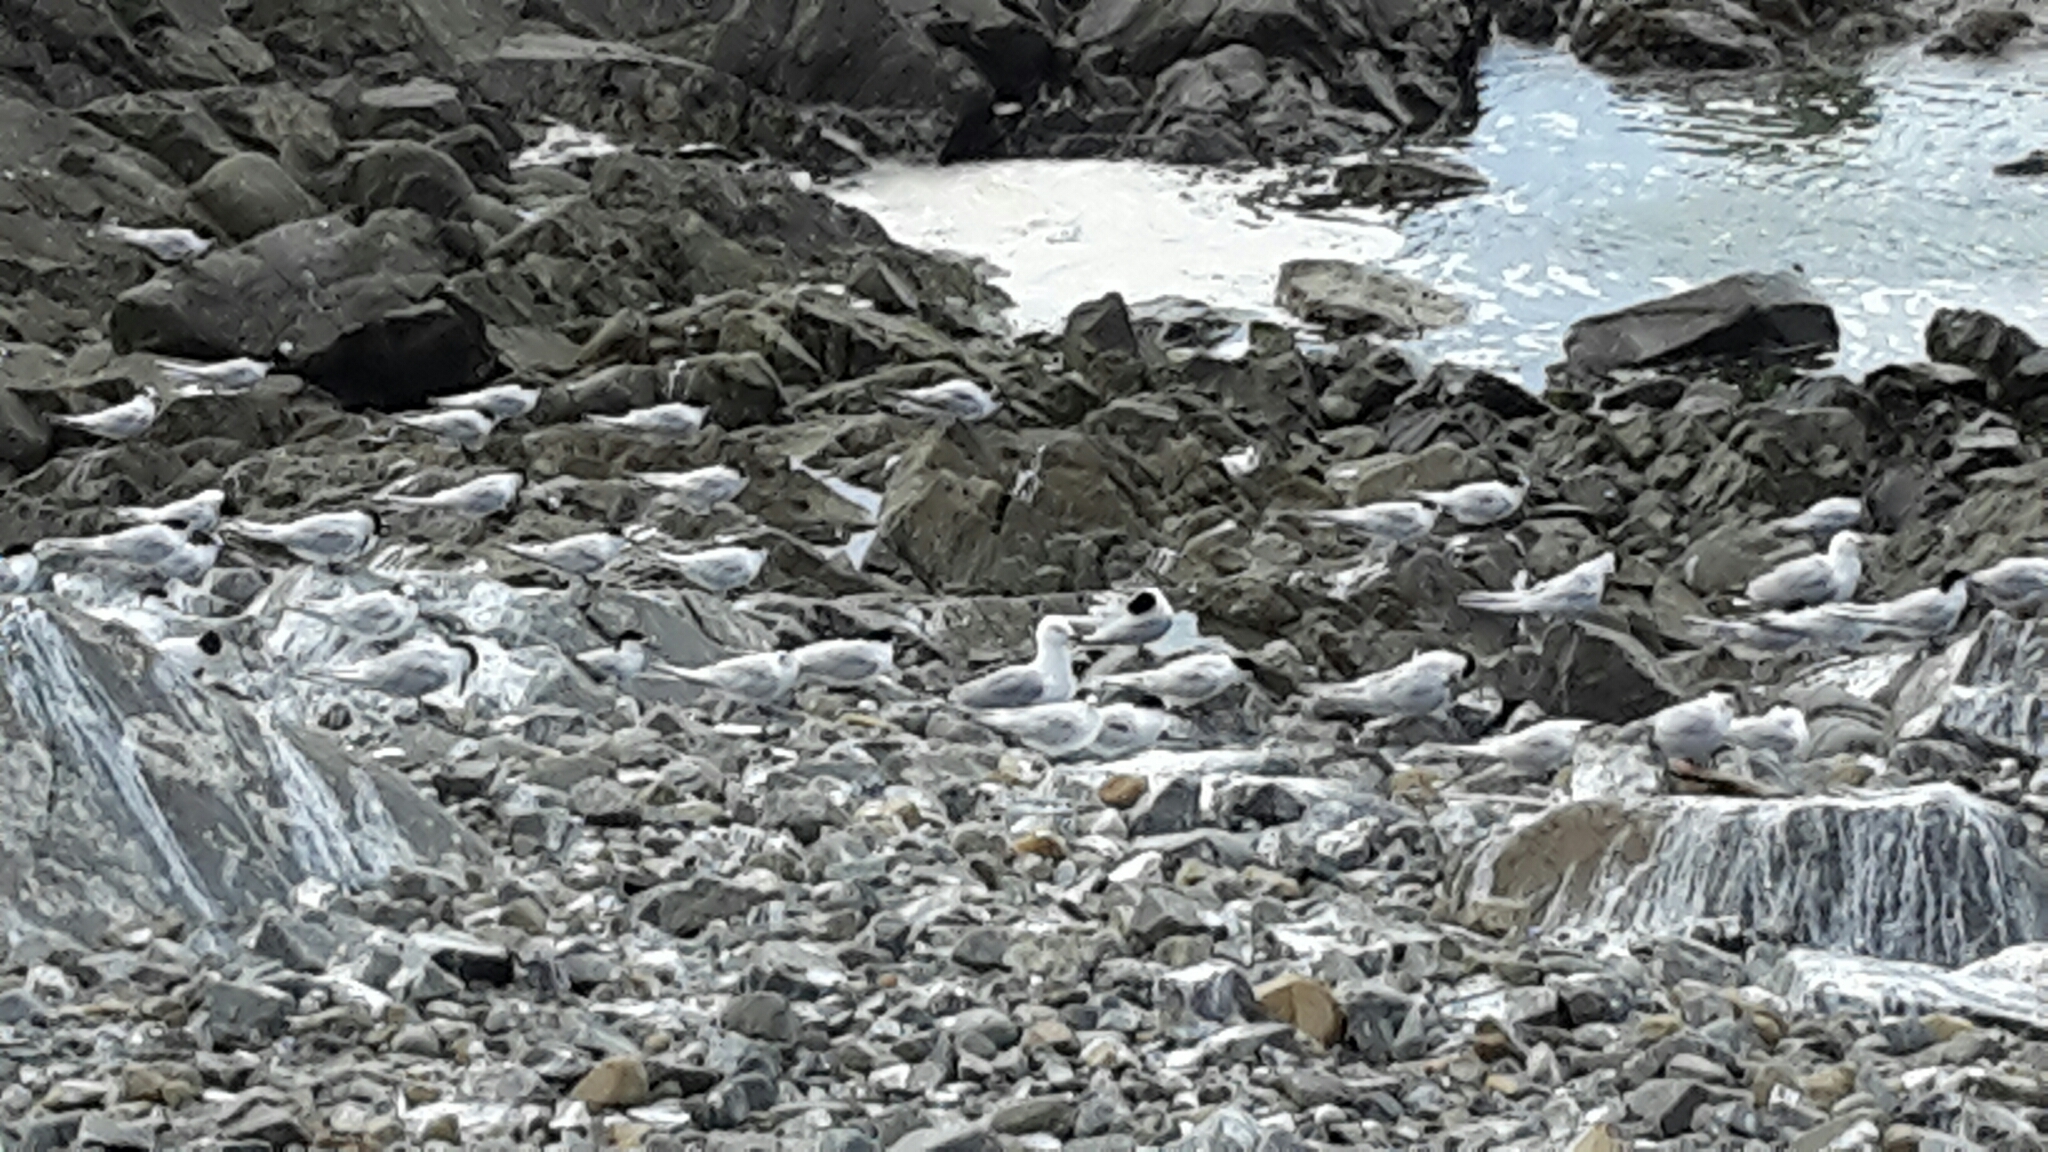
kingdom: Animalia
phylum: Chordata
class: Aves
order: Charadriiformes
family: Laridae
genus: Sterna
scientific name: Sterna striata
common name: White-fronted tern
